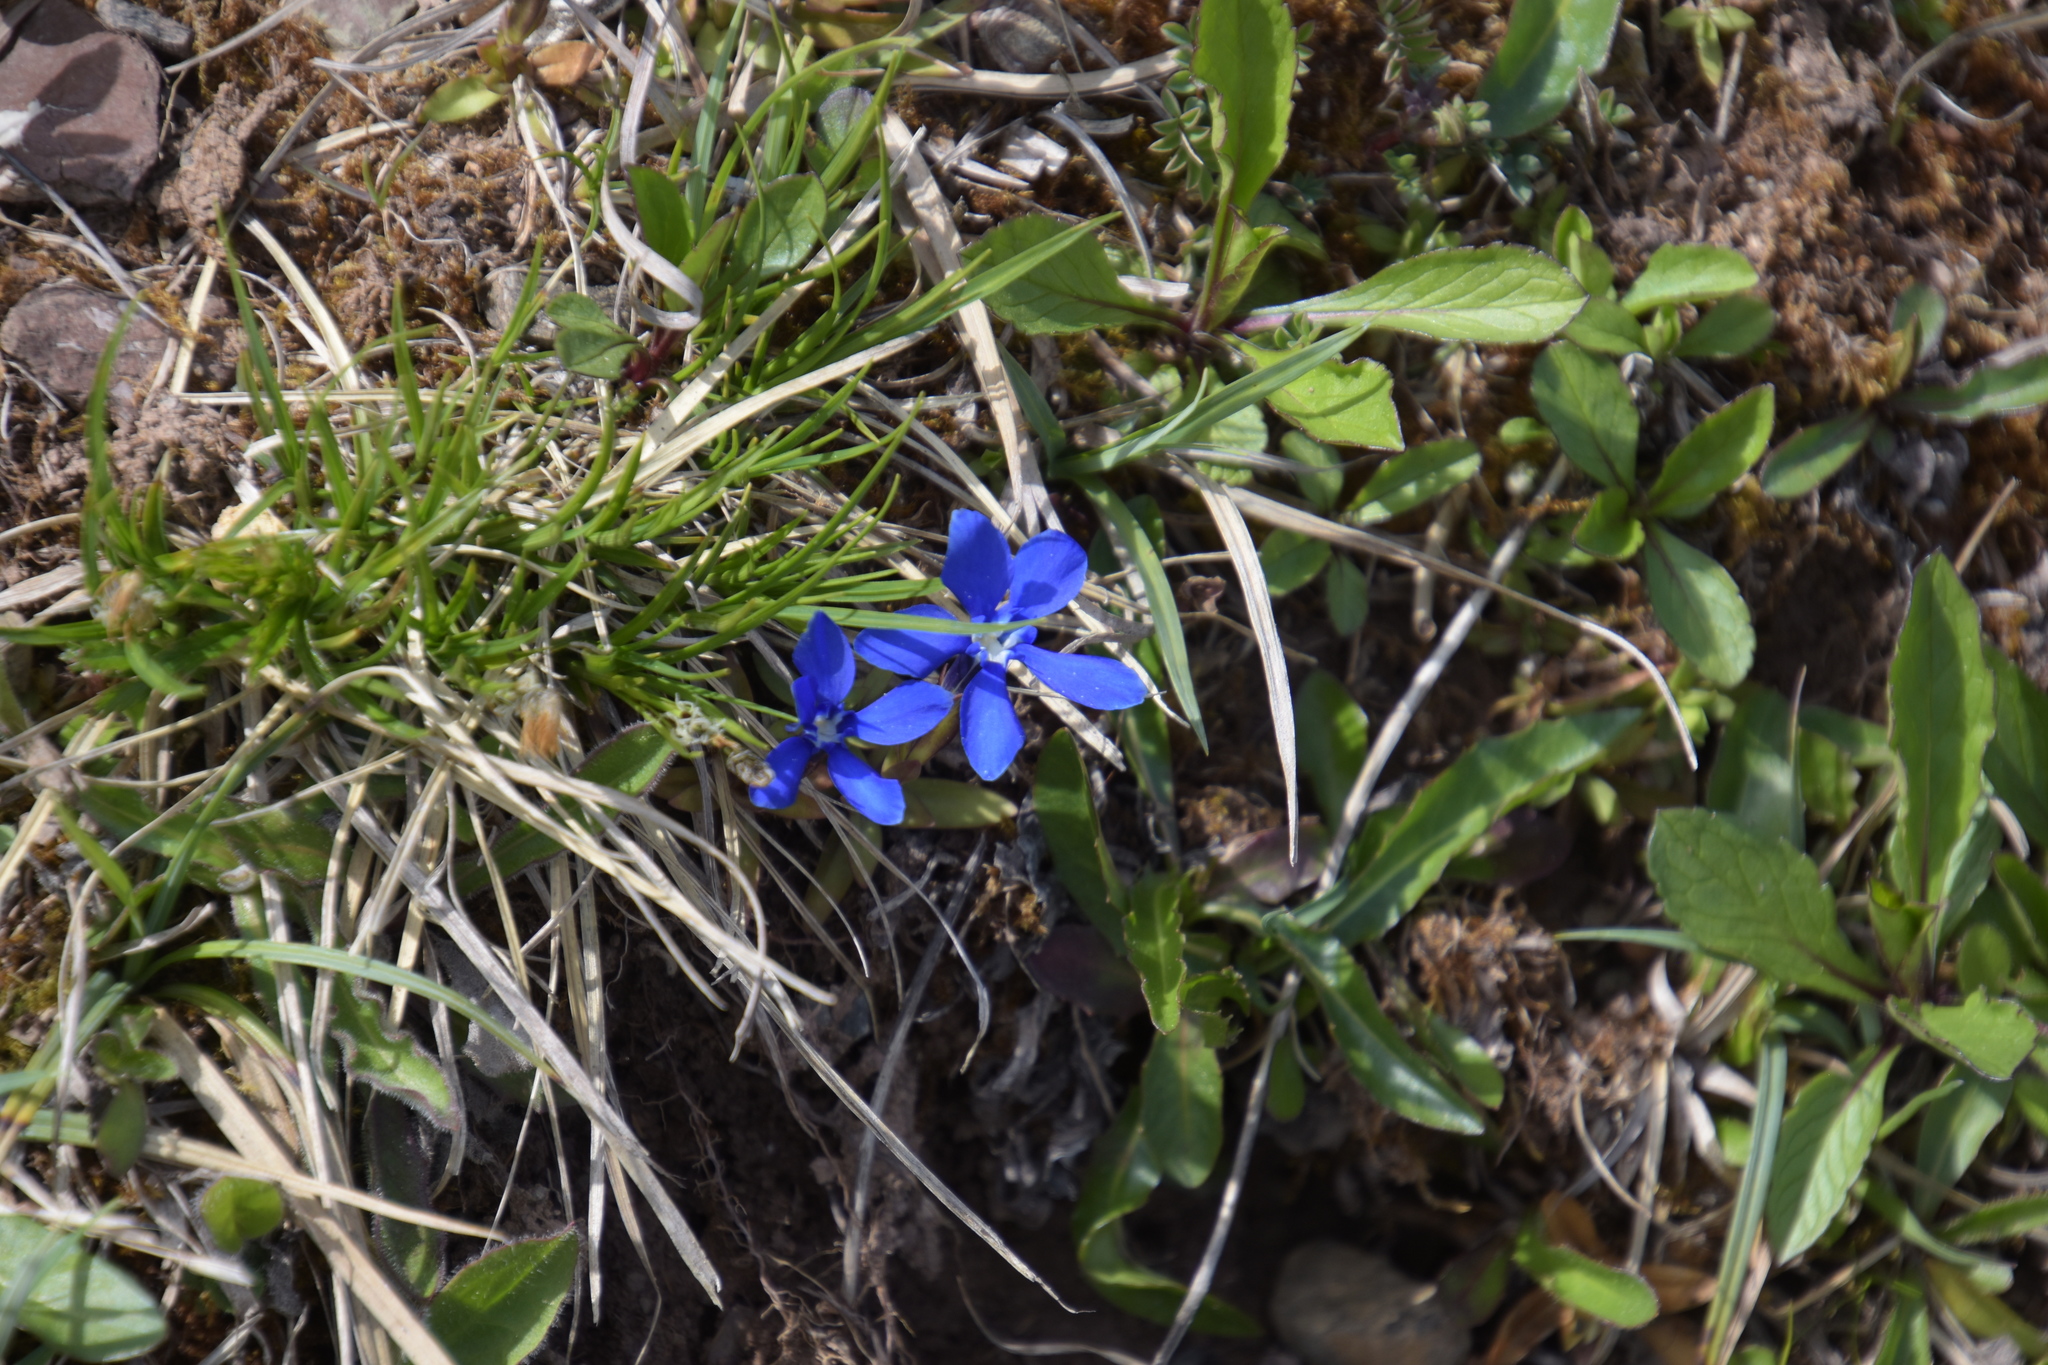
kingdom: Plantae
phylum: Tracheophyta
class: Magnoliopsida
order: Gentianales
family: Gentianaceae
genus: Gentiana
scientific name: Gentiana verna
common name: Spring gentian
